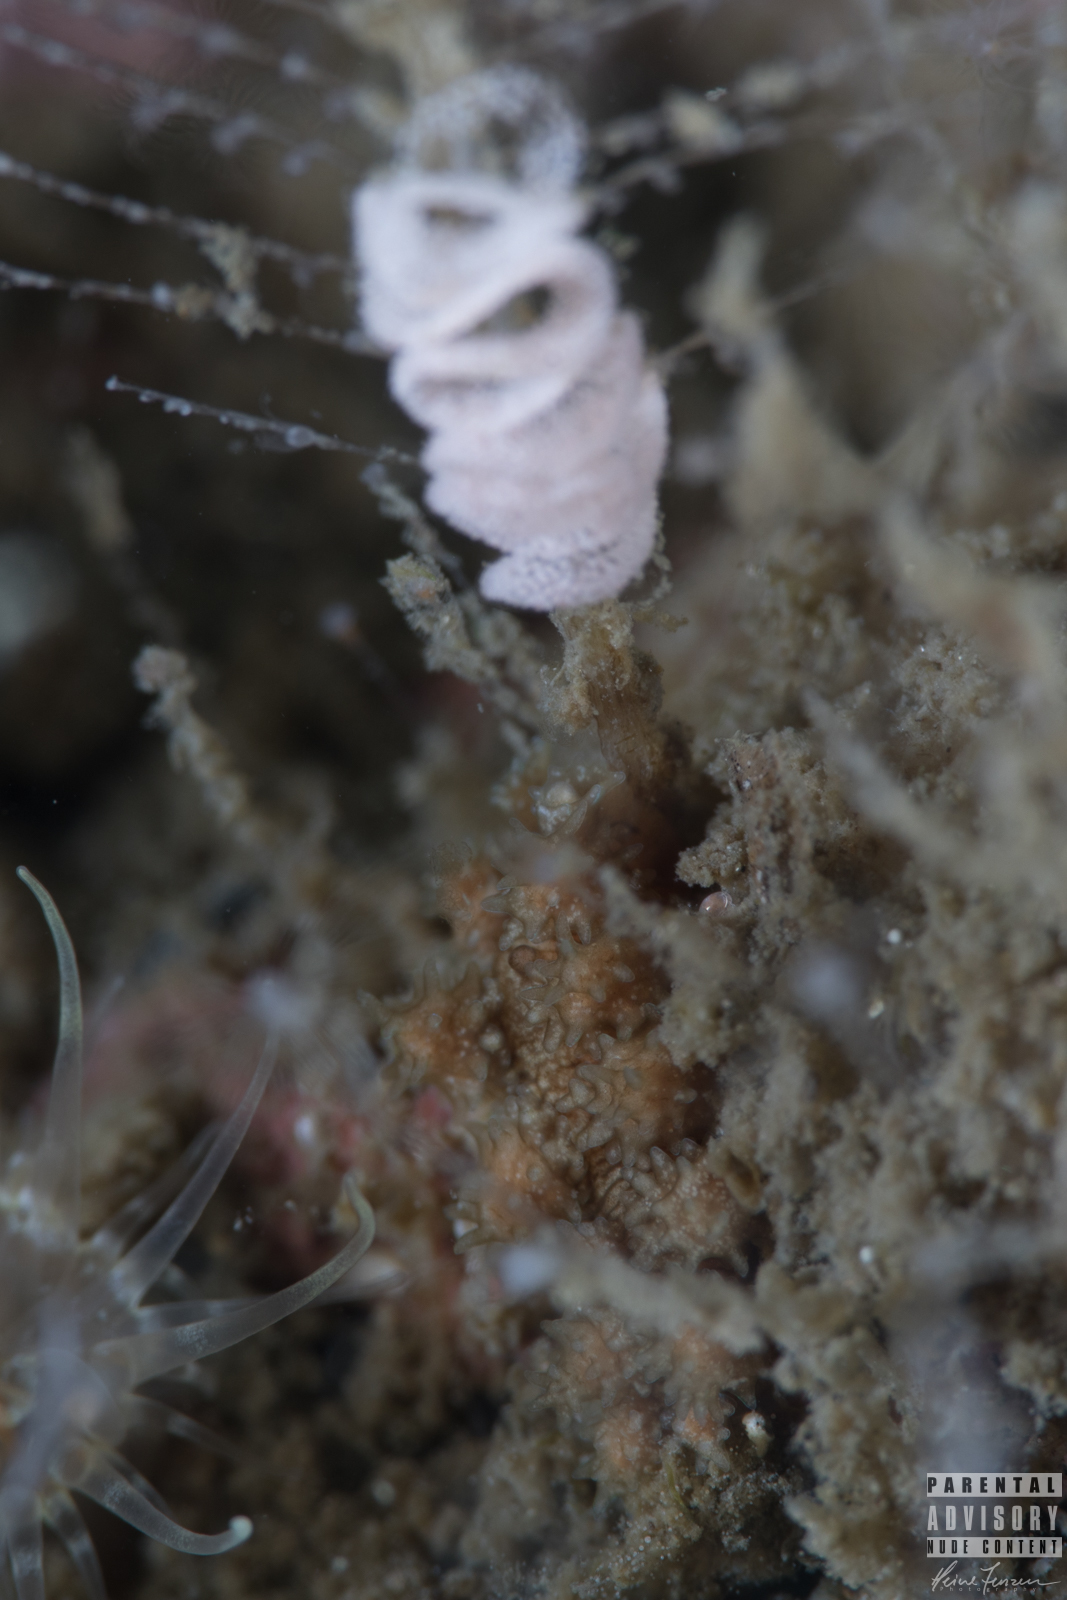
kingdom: Animalia
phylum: Mollusca
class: Gastropoda
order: Nudibranchia
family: Dotidae
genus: Doto
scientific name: Doto hystrix
